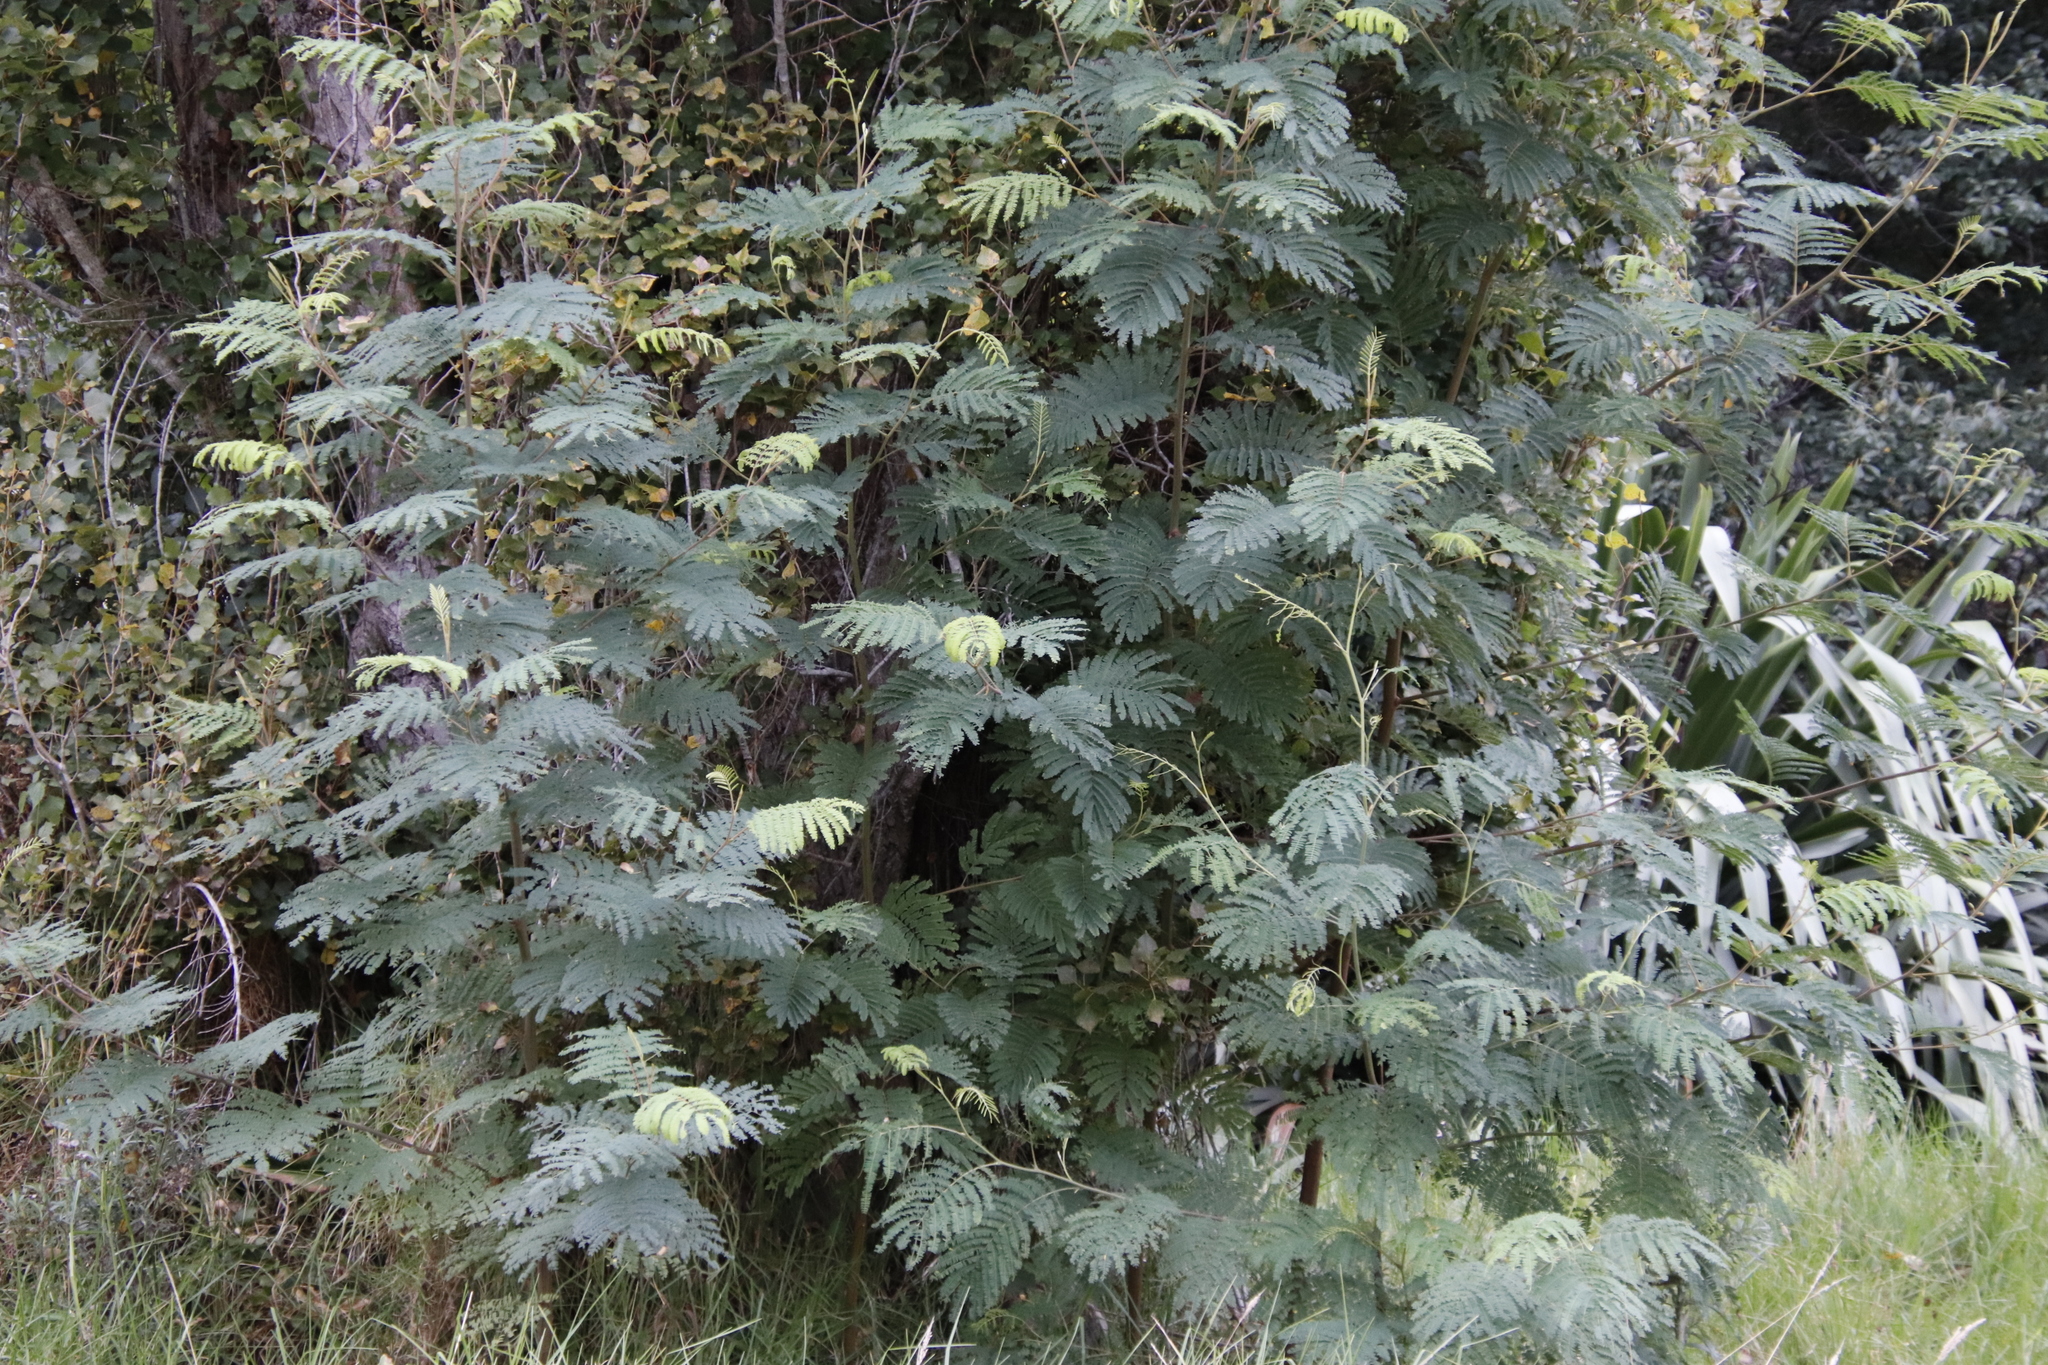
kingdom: Plantae
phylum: Tracheophyta
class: Magnoliopsida
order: Fabales
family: Fabaceae
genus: Paraserianthes
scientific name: Paraserianthes lophantha
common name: Plume albizia
